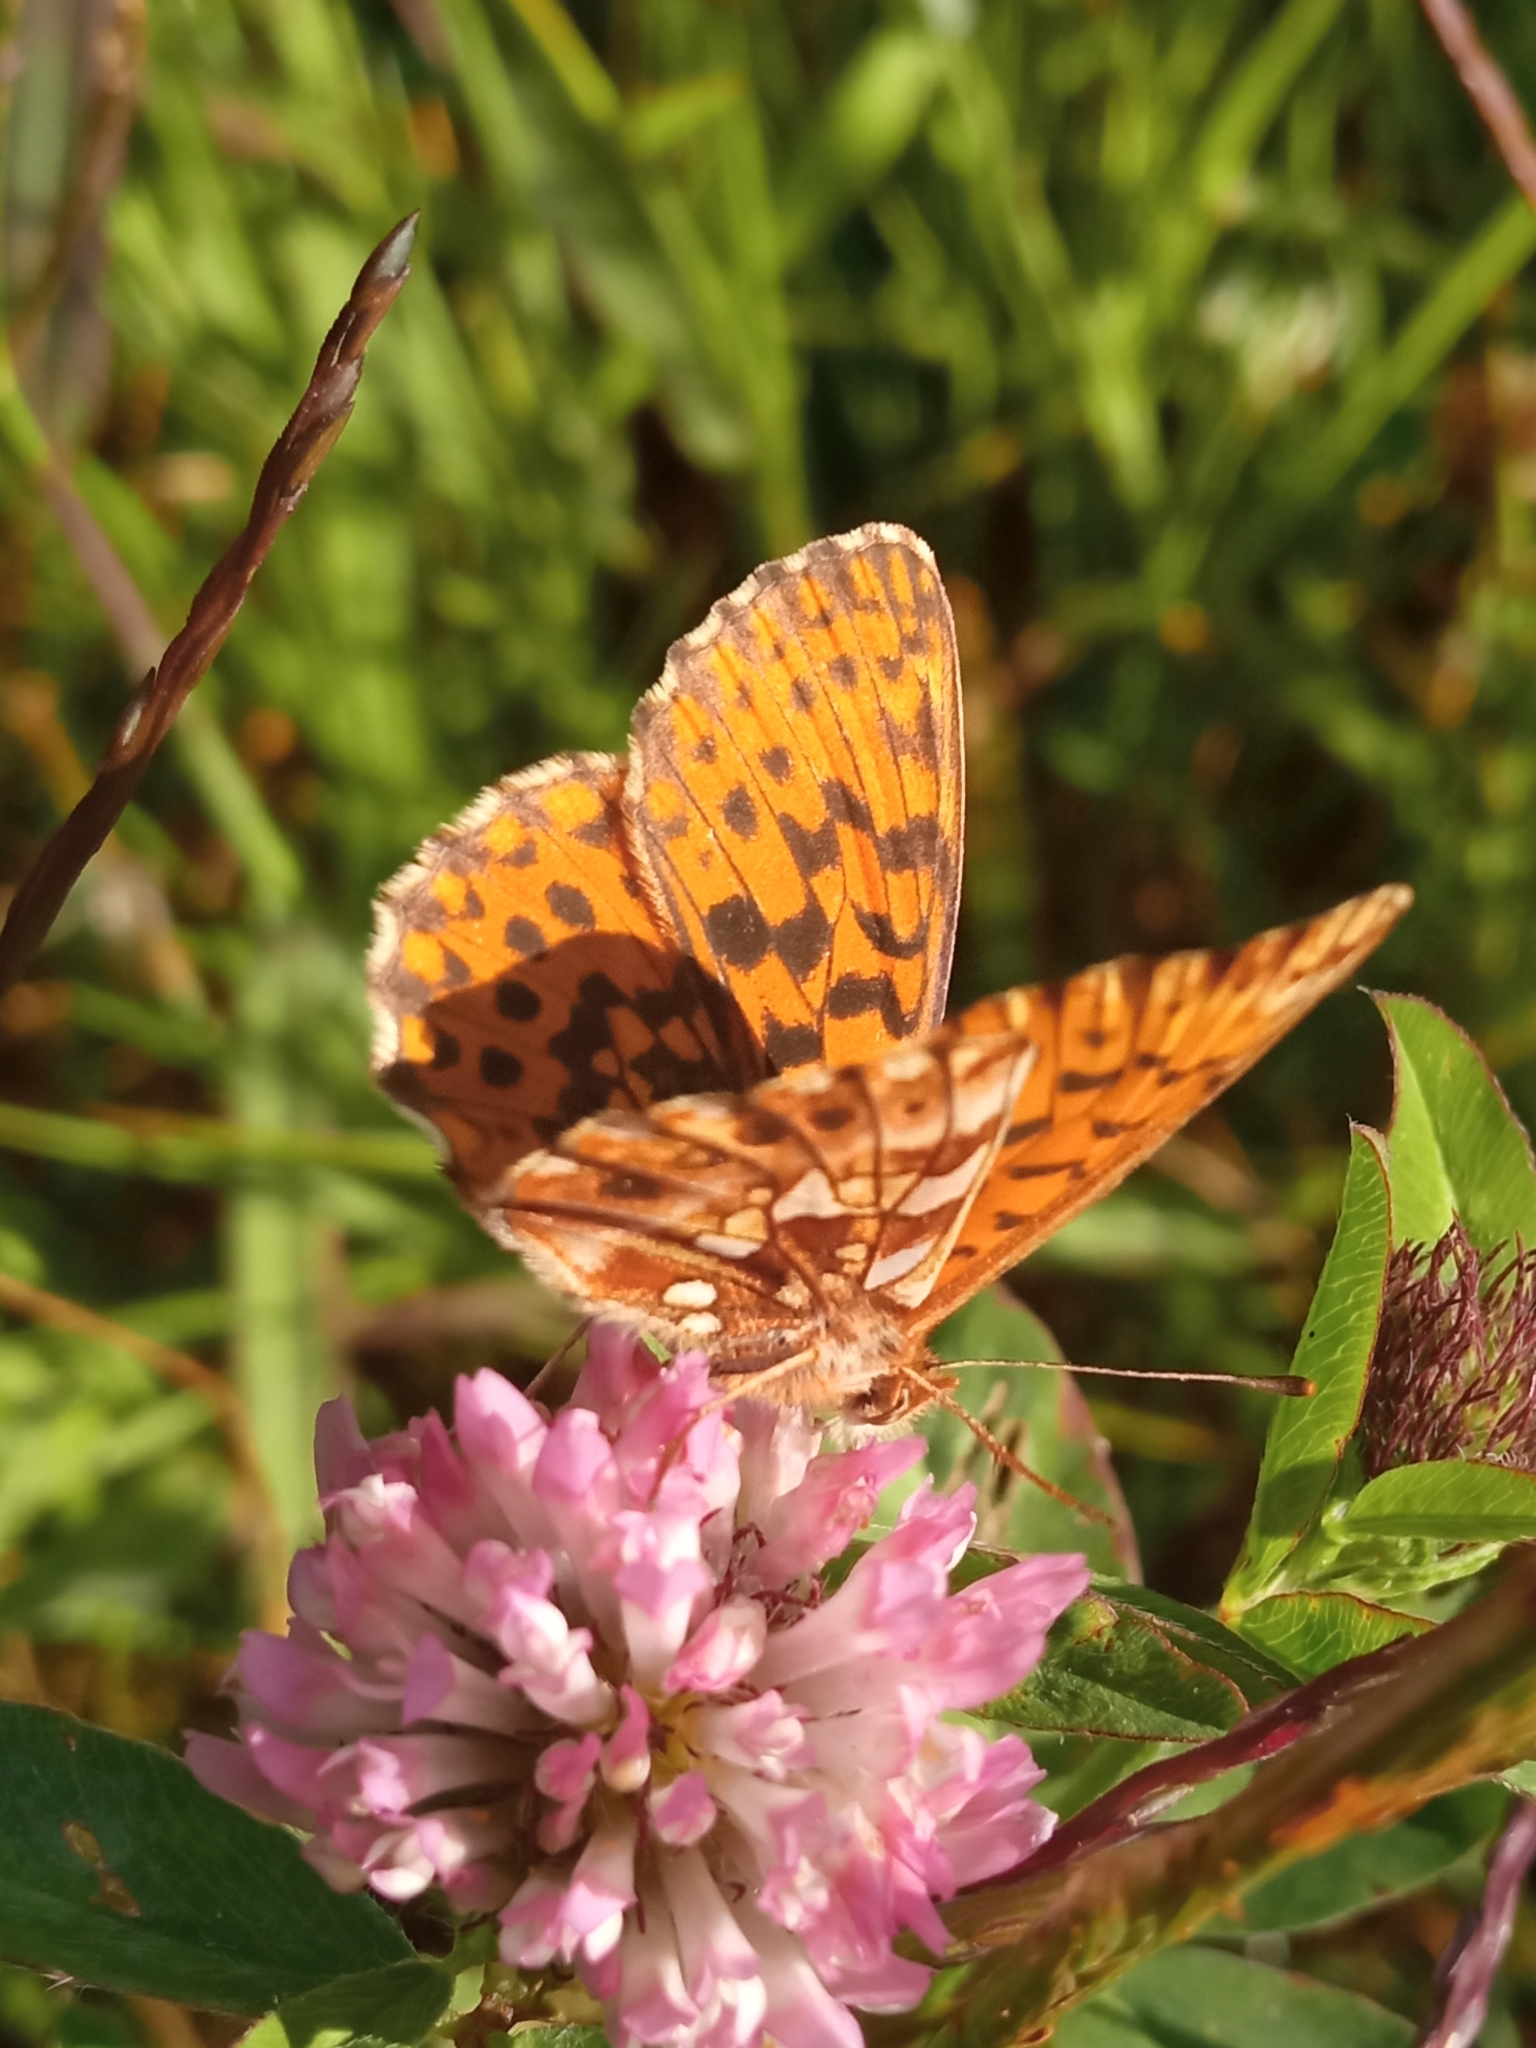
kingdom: Animalia
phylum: Arthropoda
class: Insecta
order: Lepidoptera
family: Nymphalidae
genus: Boloria
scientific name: Boloria dia
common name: Weaver's fritillary
